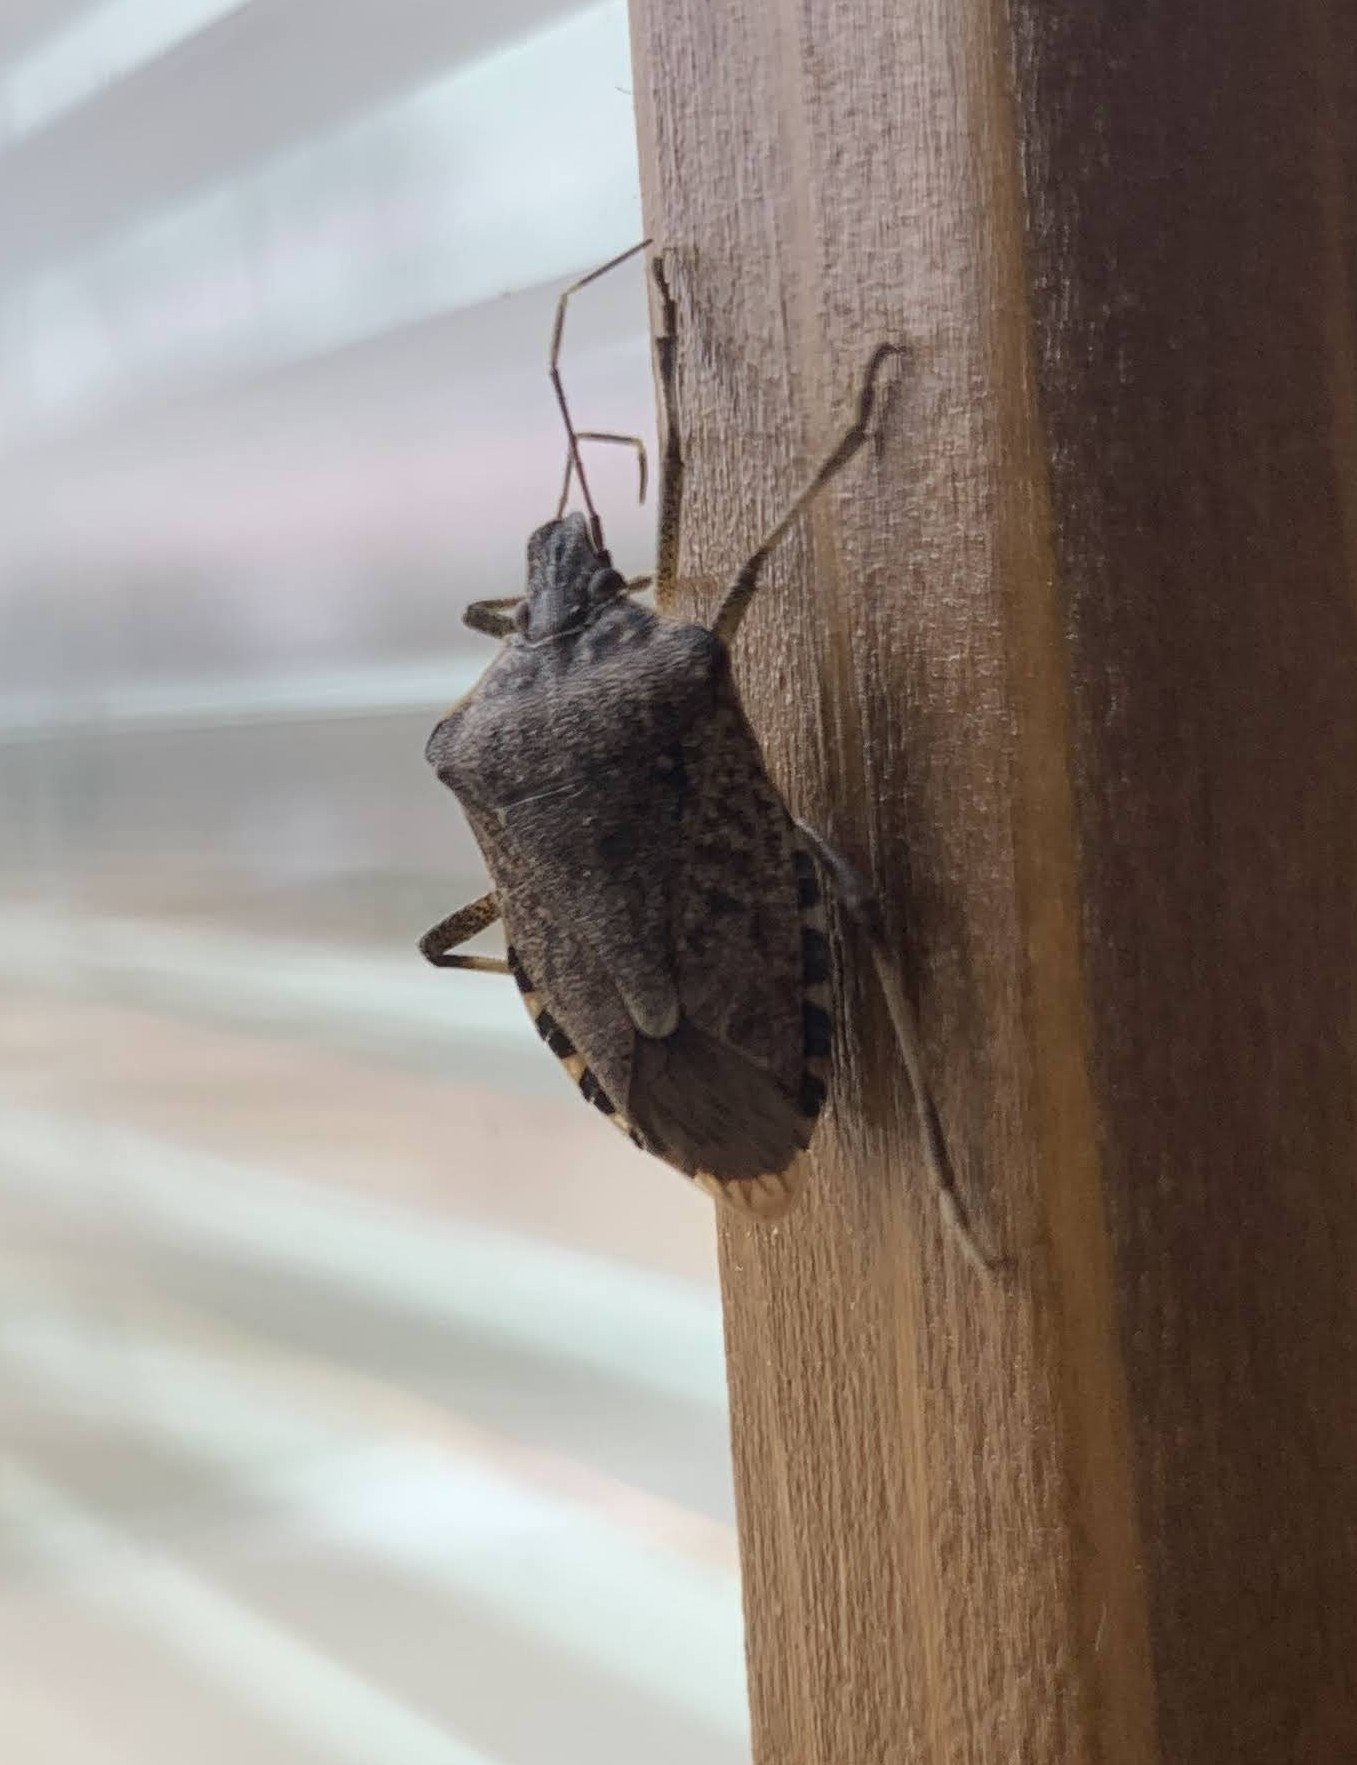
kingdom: Animalia
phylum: Arthropoda
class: Insecta
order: Hemiptera
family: Pentatomidae
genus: Halyomorpha
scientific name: Halyomorpha halys
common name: Brown marmorated stink bug
